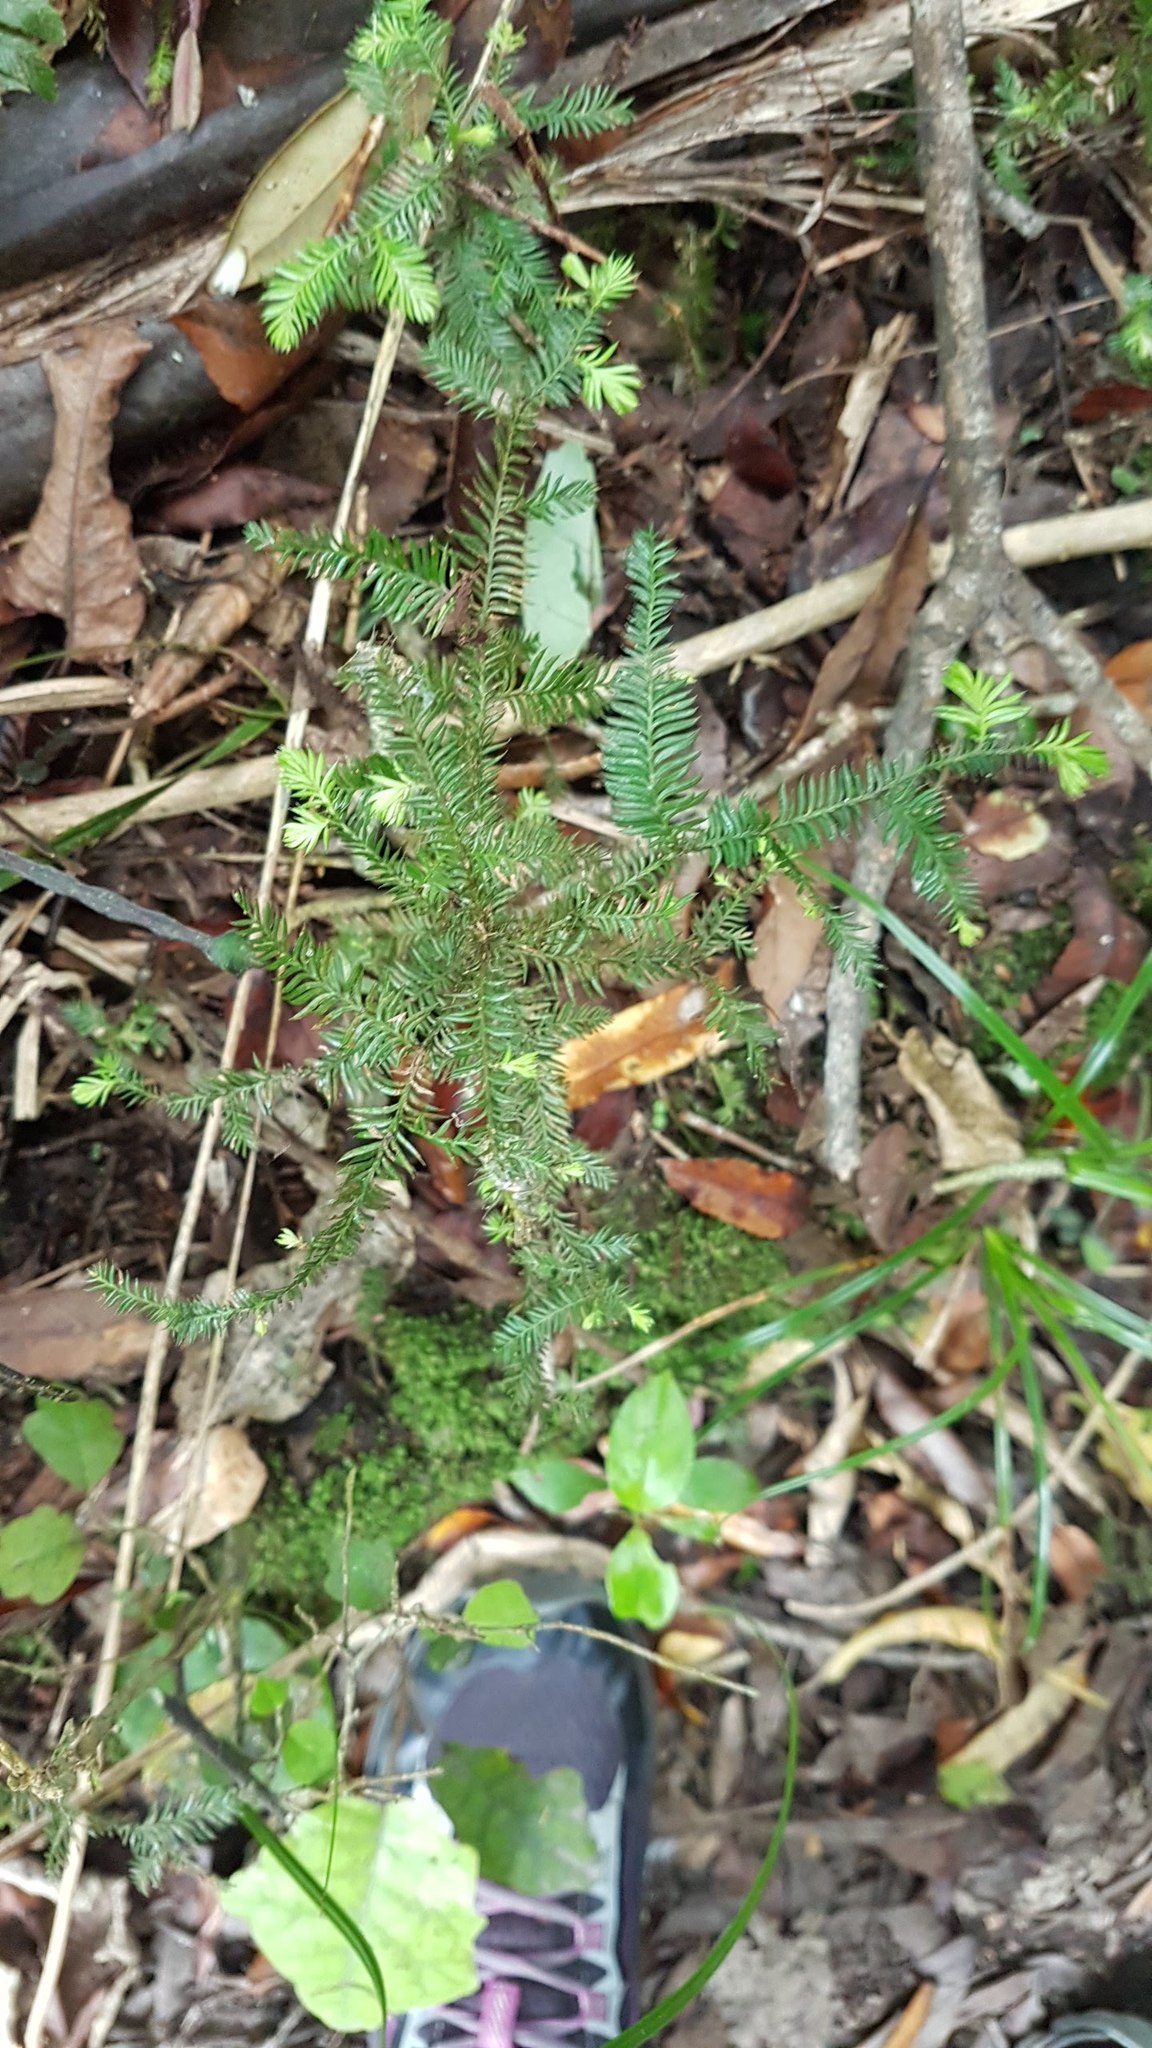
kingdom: Plantae
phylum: Tracheophyta
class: Pinopsida
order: Pinales
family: Podocarpaceae
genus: Dacrycarpus
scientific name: Dacrycarpus dacrydioides
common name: White pine
